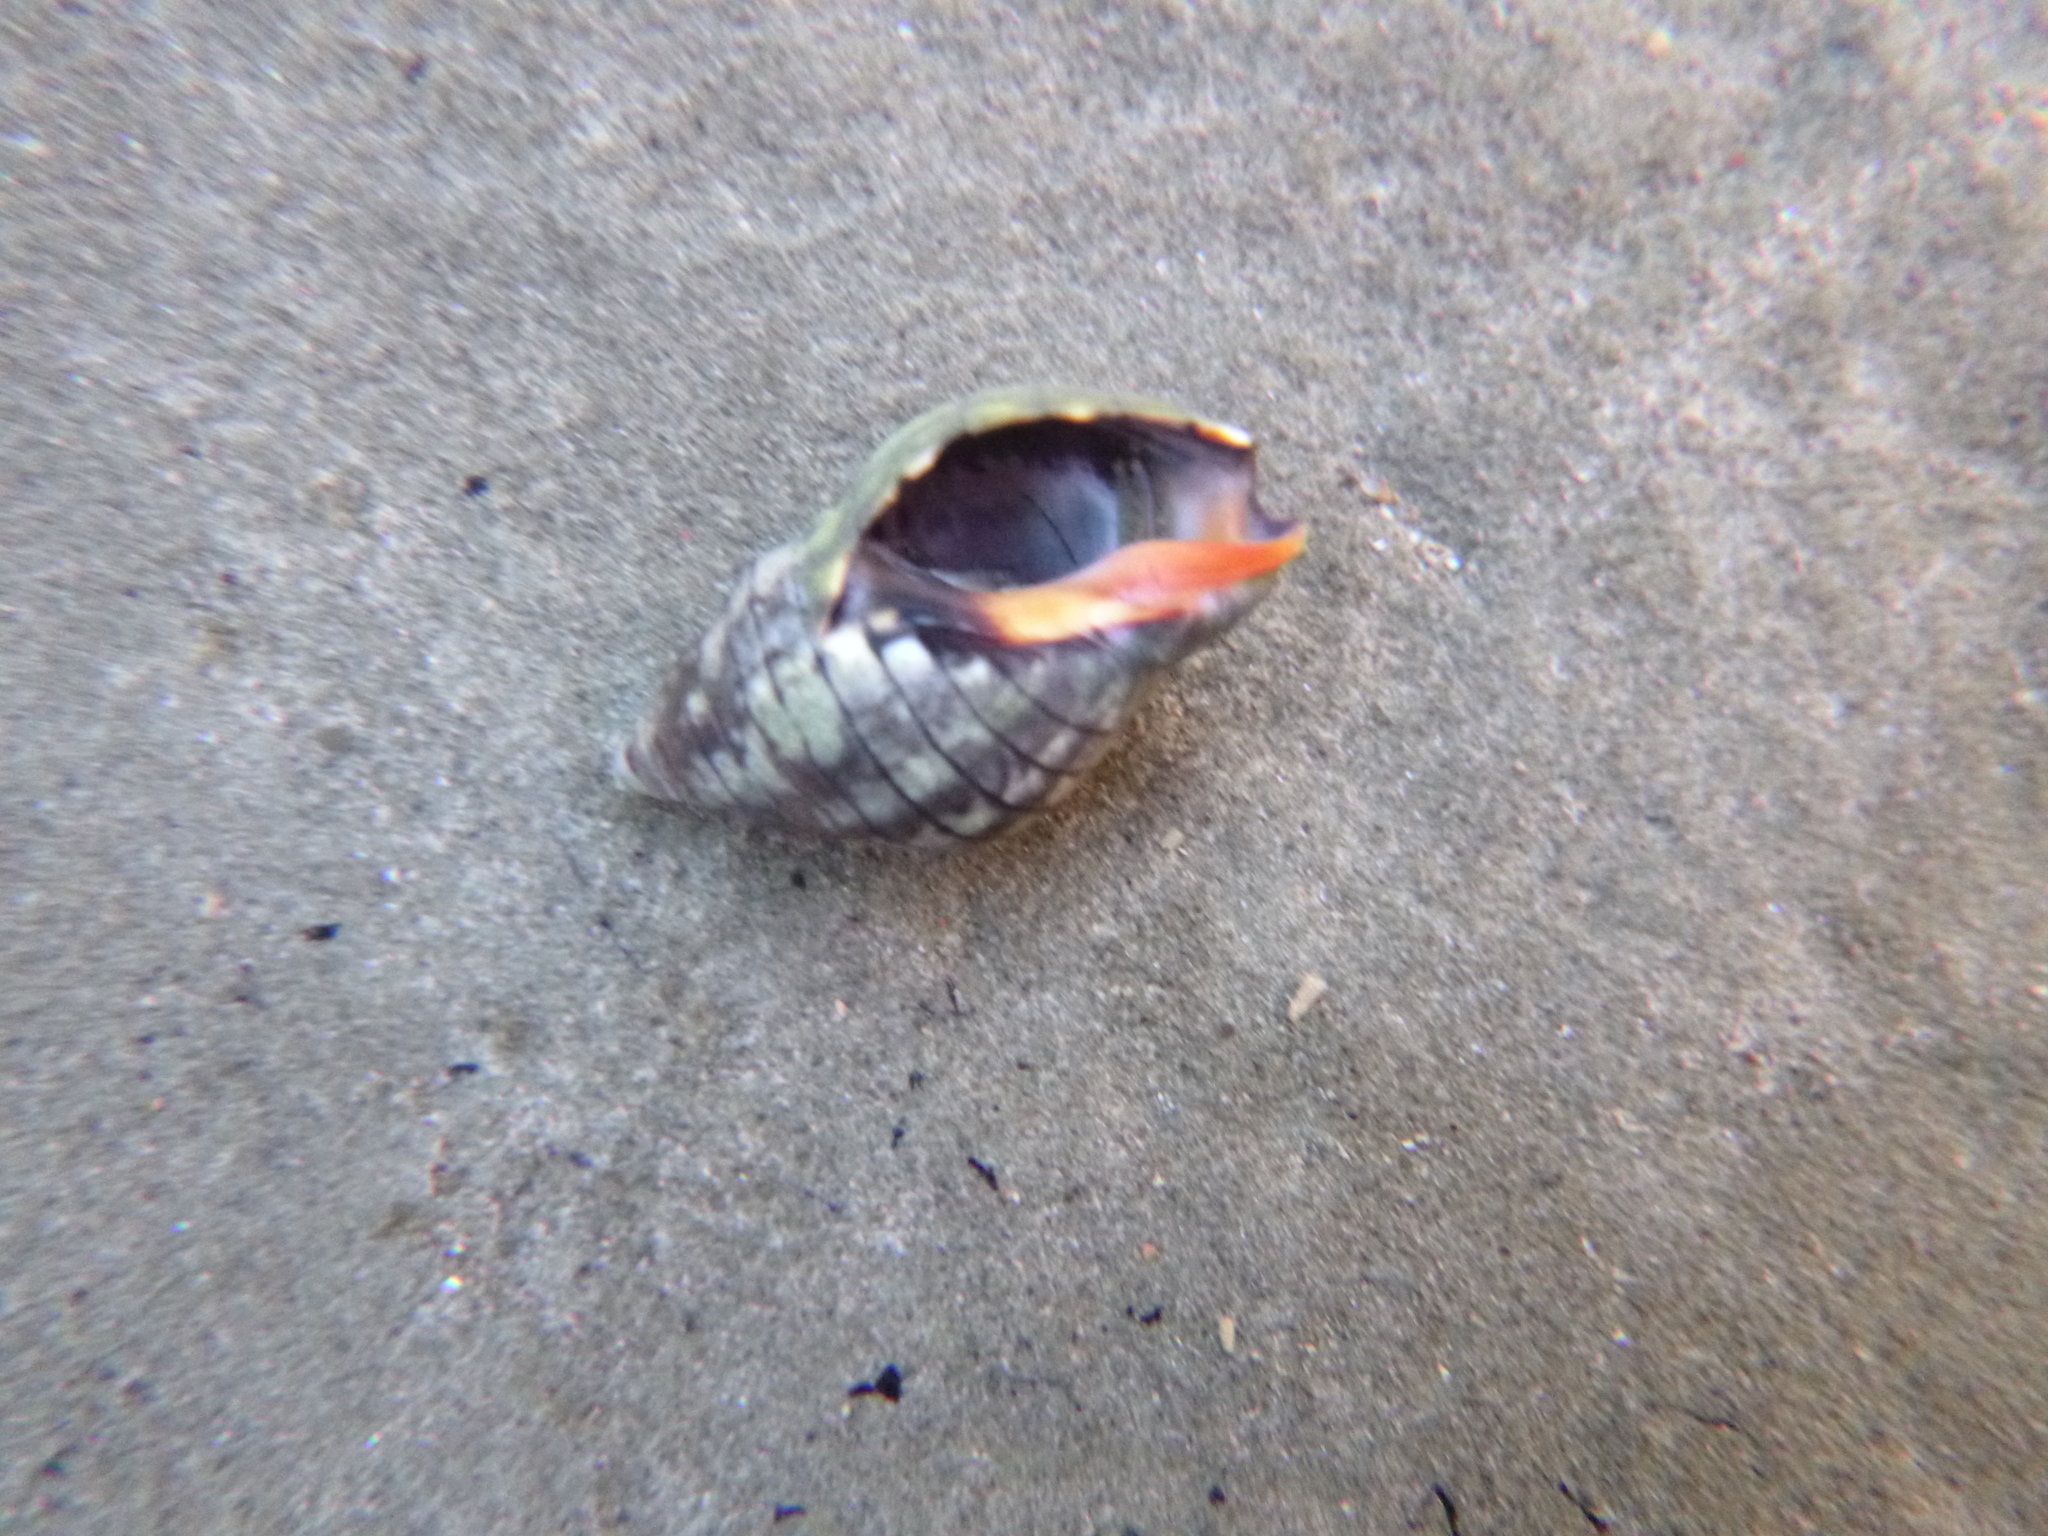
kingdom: Animalia
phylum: Mollusca
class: Gastropoda
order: Neogastropoda
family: Cominellidae
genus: Cominella
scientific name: Cominella virgata
